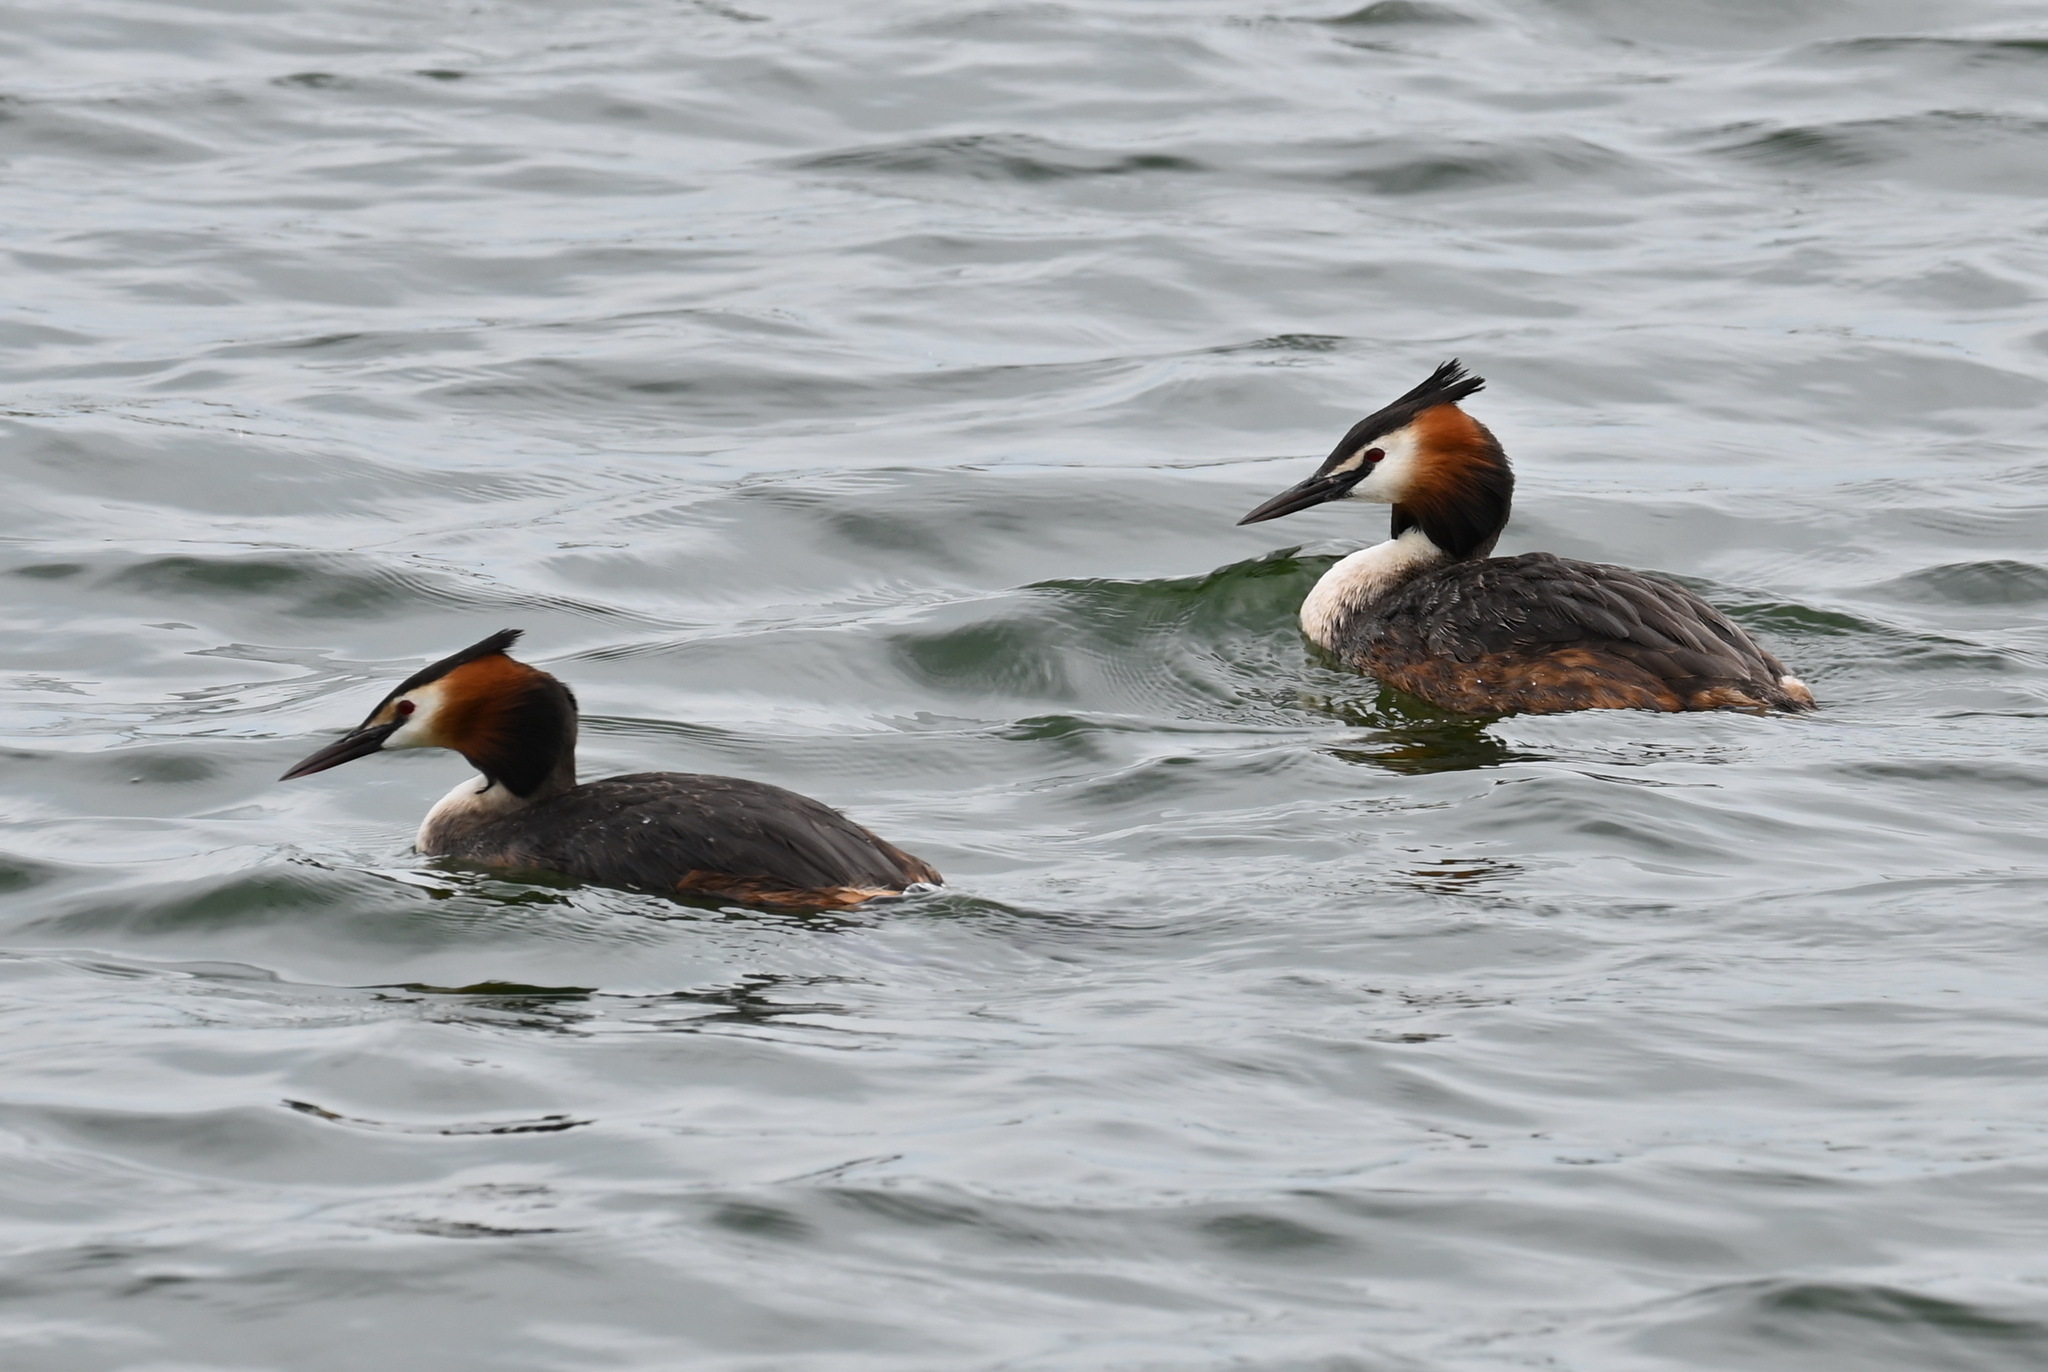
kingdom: Animalia
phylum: Chordata
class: Aves
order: Podicipediformes
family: Podicipedidae
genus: Podiceps
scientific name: Podiceps cristatus
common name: Great crested grebe
